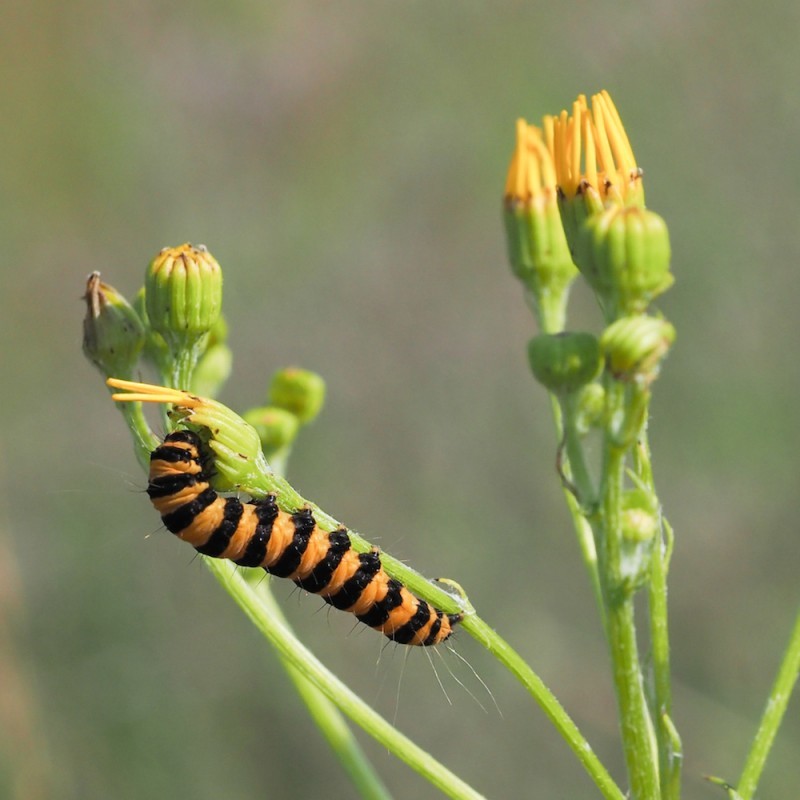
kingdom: Animalia
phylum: Arthropoda
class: Insecta
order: Lepidoptera
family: Erebidae
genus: Tyria
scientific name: Tyria jacobaeae
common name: Cinnabar
